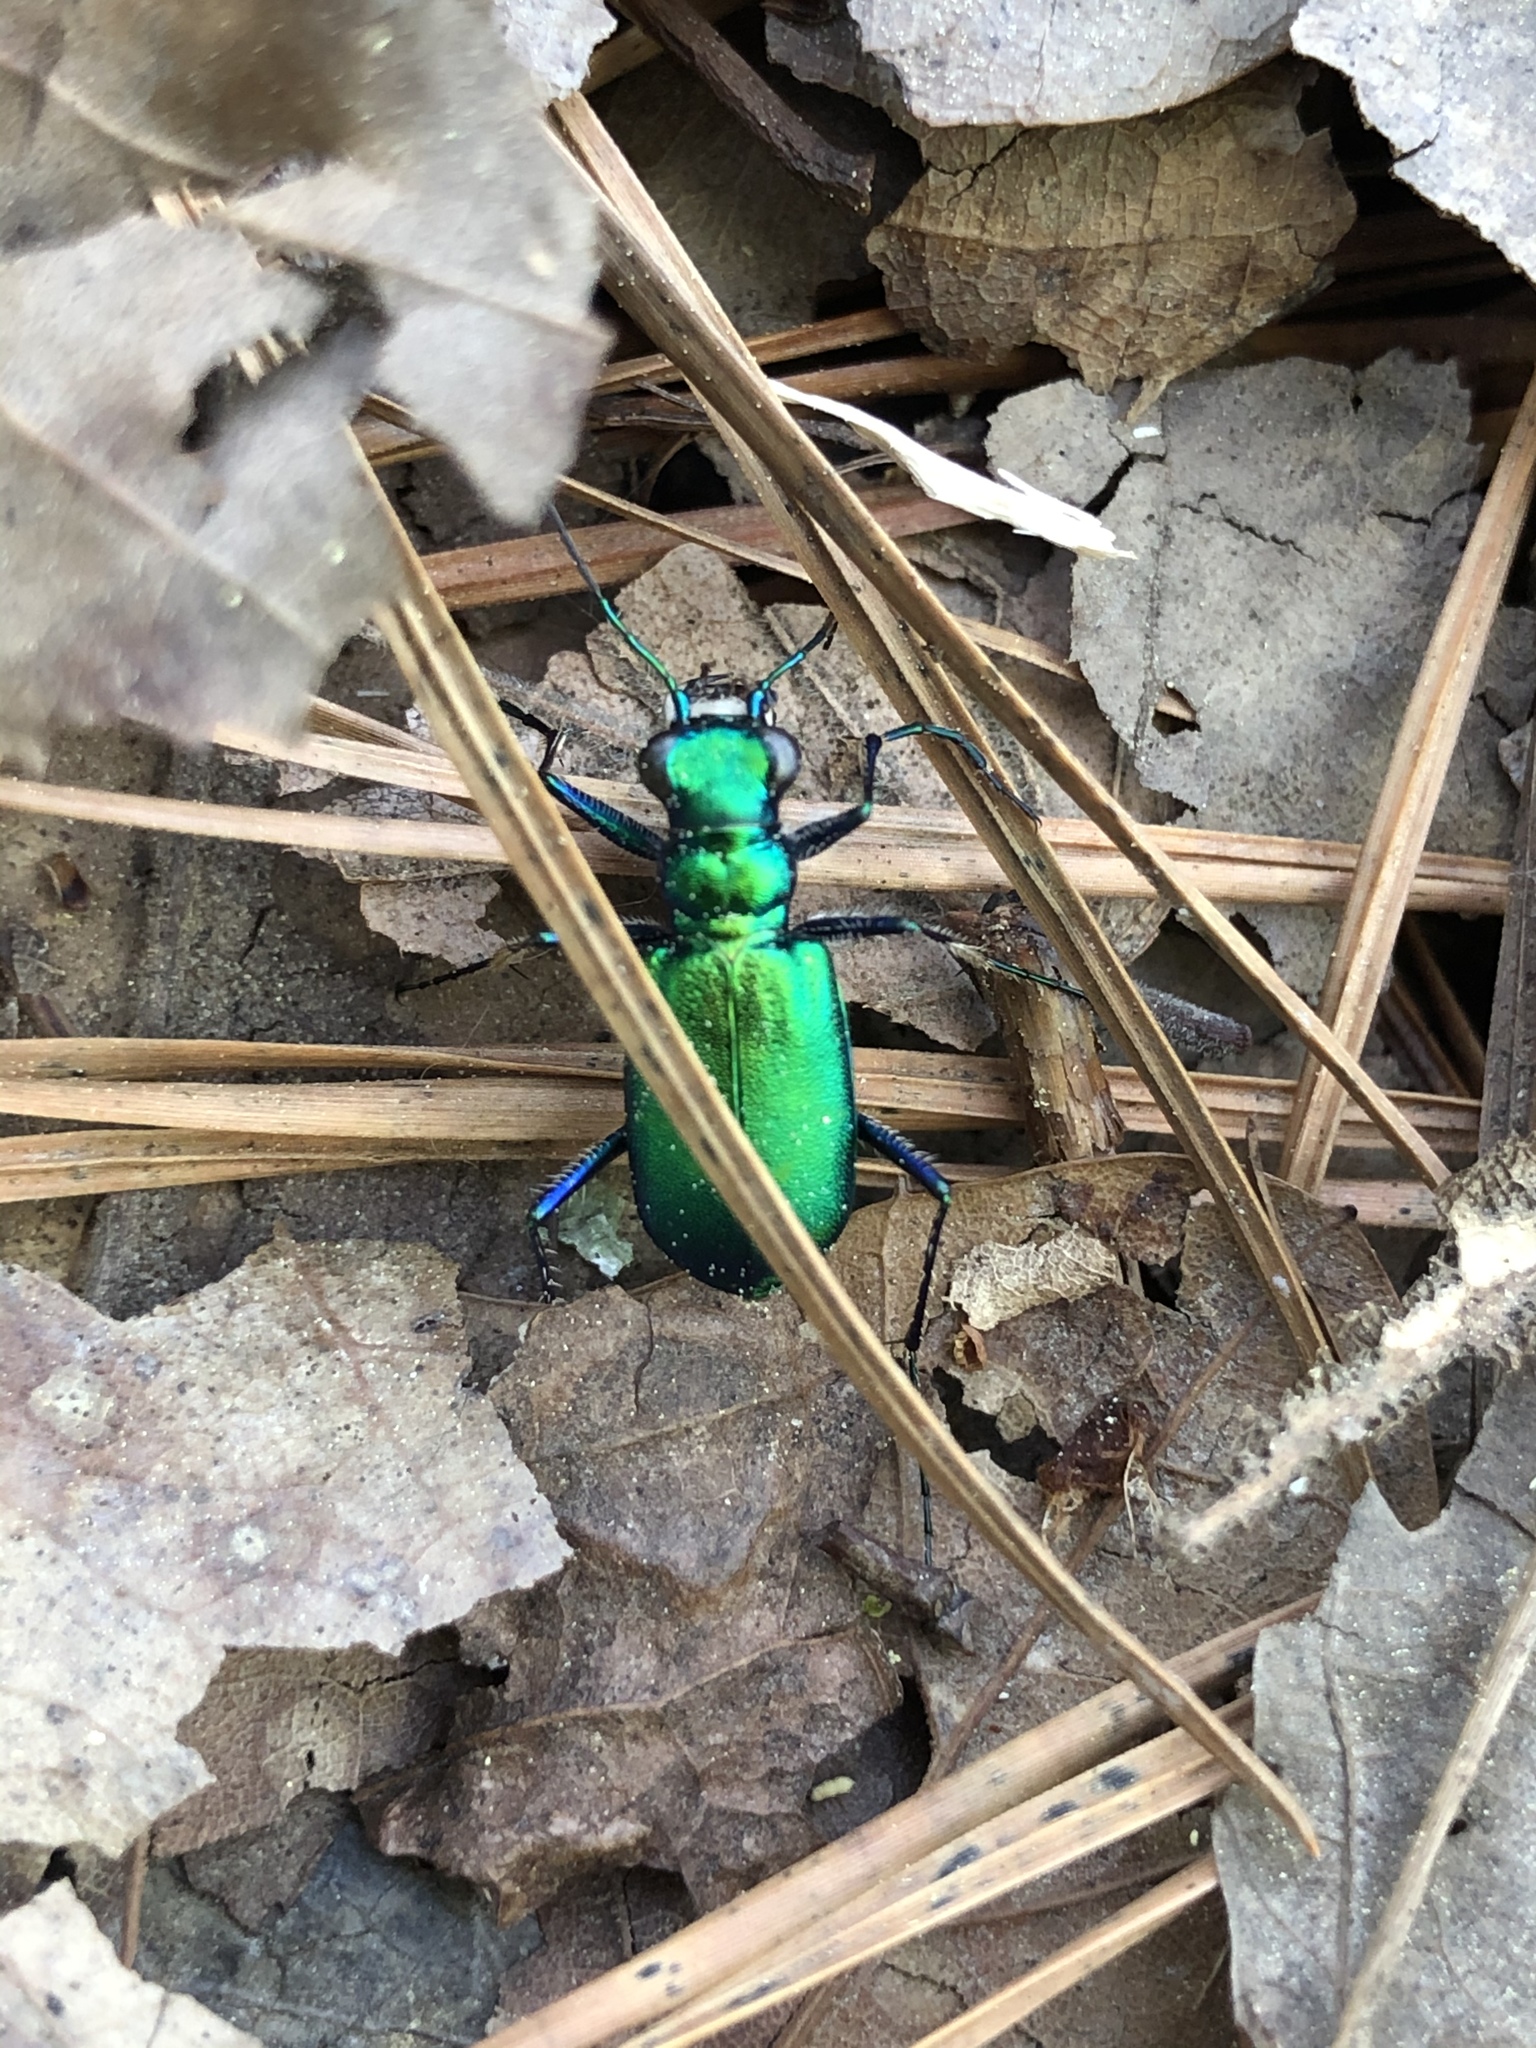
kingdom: Animalia
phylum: Arthropoda
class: Insecta
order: Coleoptera
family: Carabidae
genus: Cicindela
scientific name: Cicindela sexguttata
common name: Six-spotted tiger beetle
